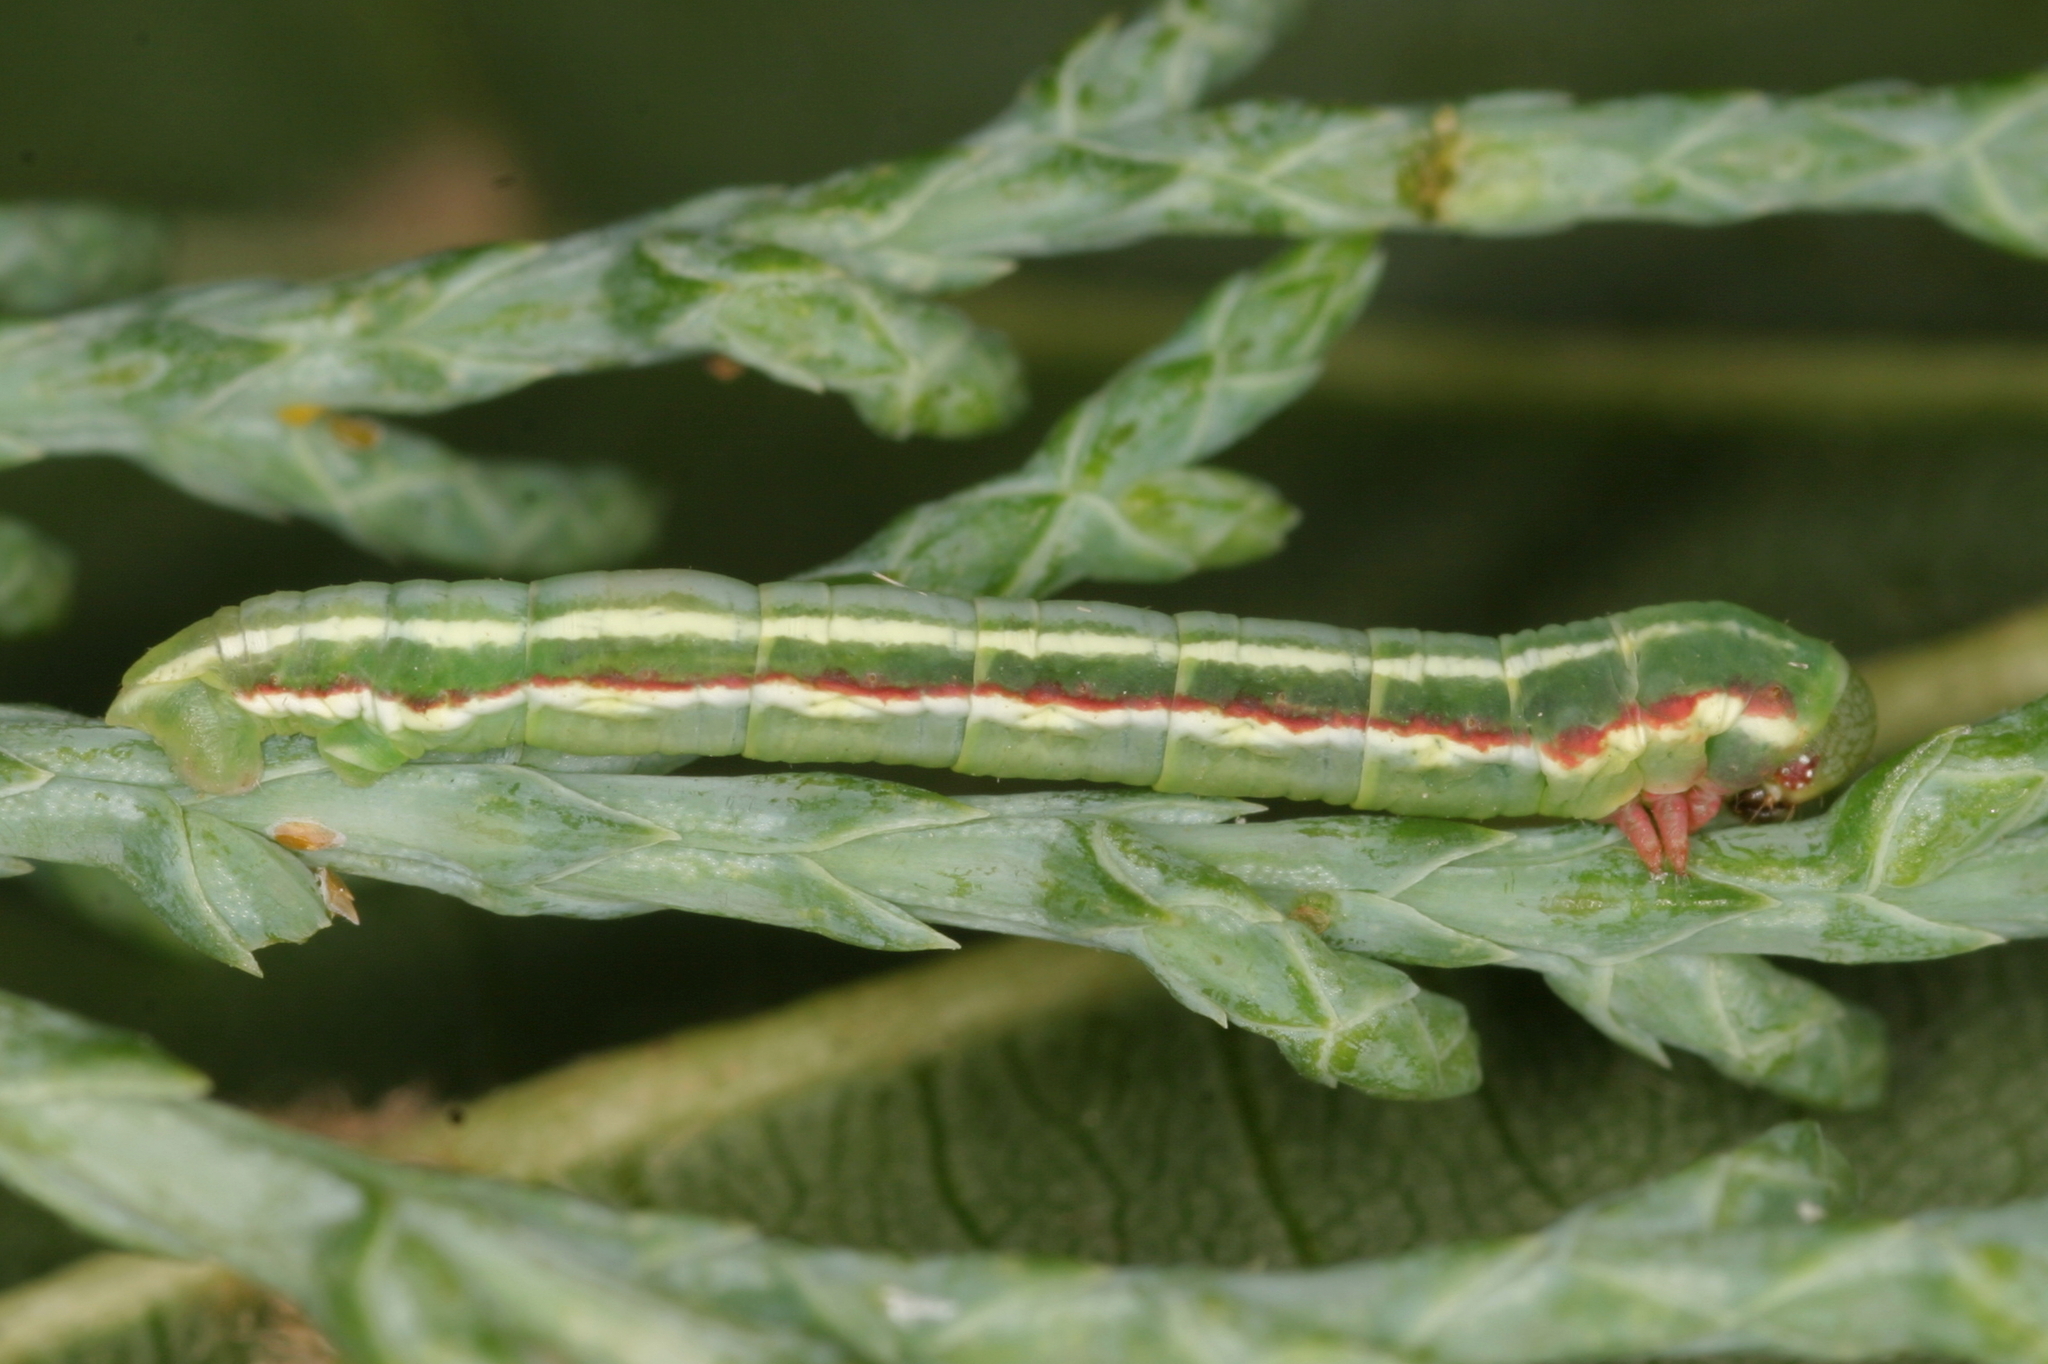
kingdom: Animalia
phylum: Arthropoda
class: Insecta
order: Lepidoptera
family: Geometridae
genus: Thera
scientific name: Thera juniperata
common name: Juniper carpet
